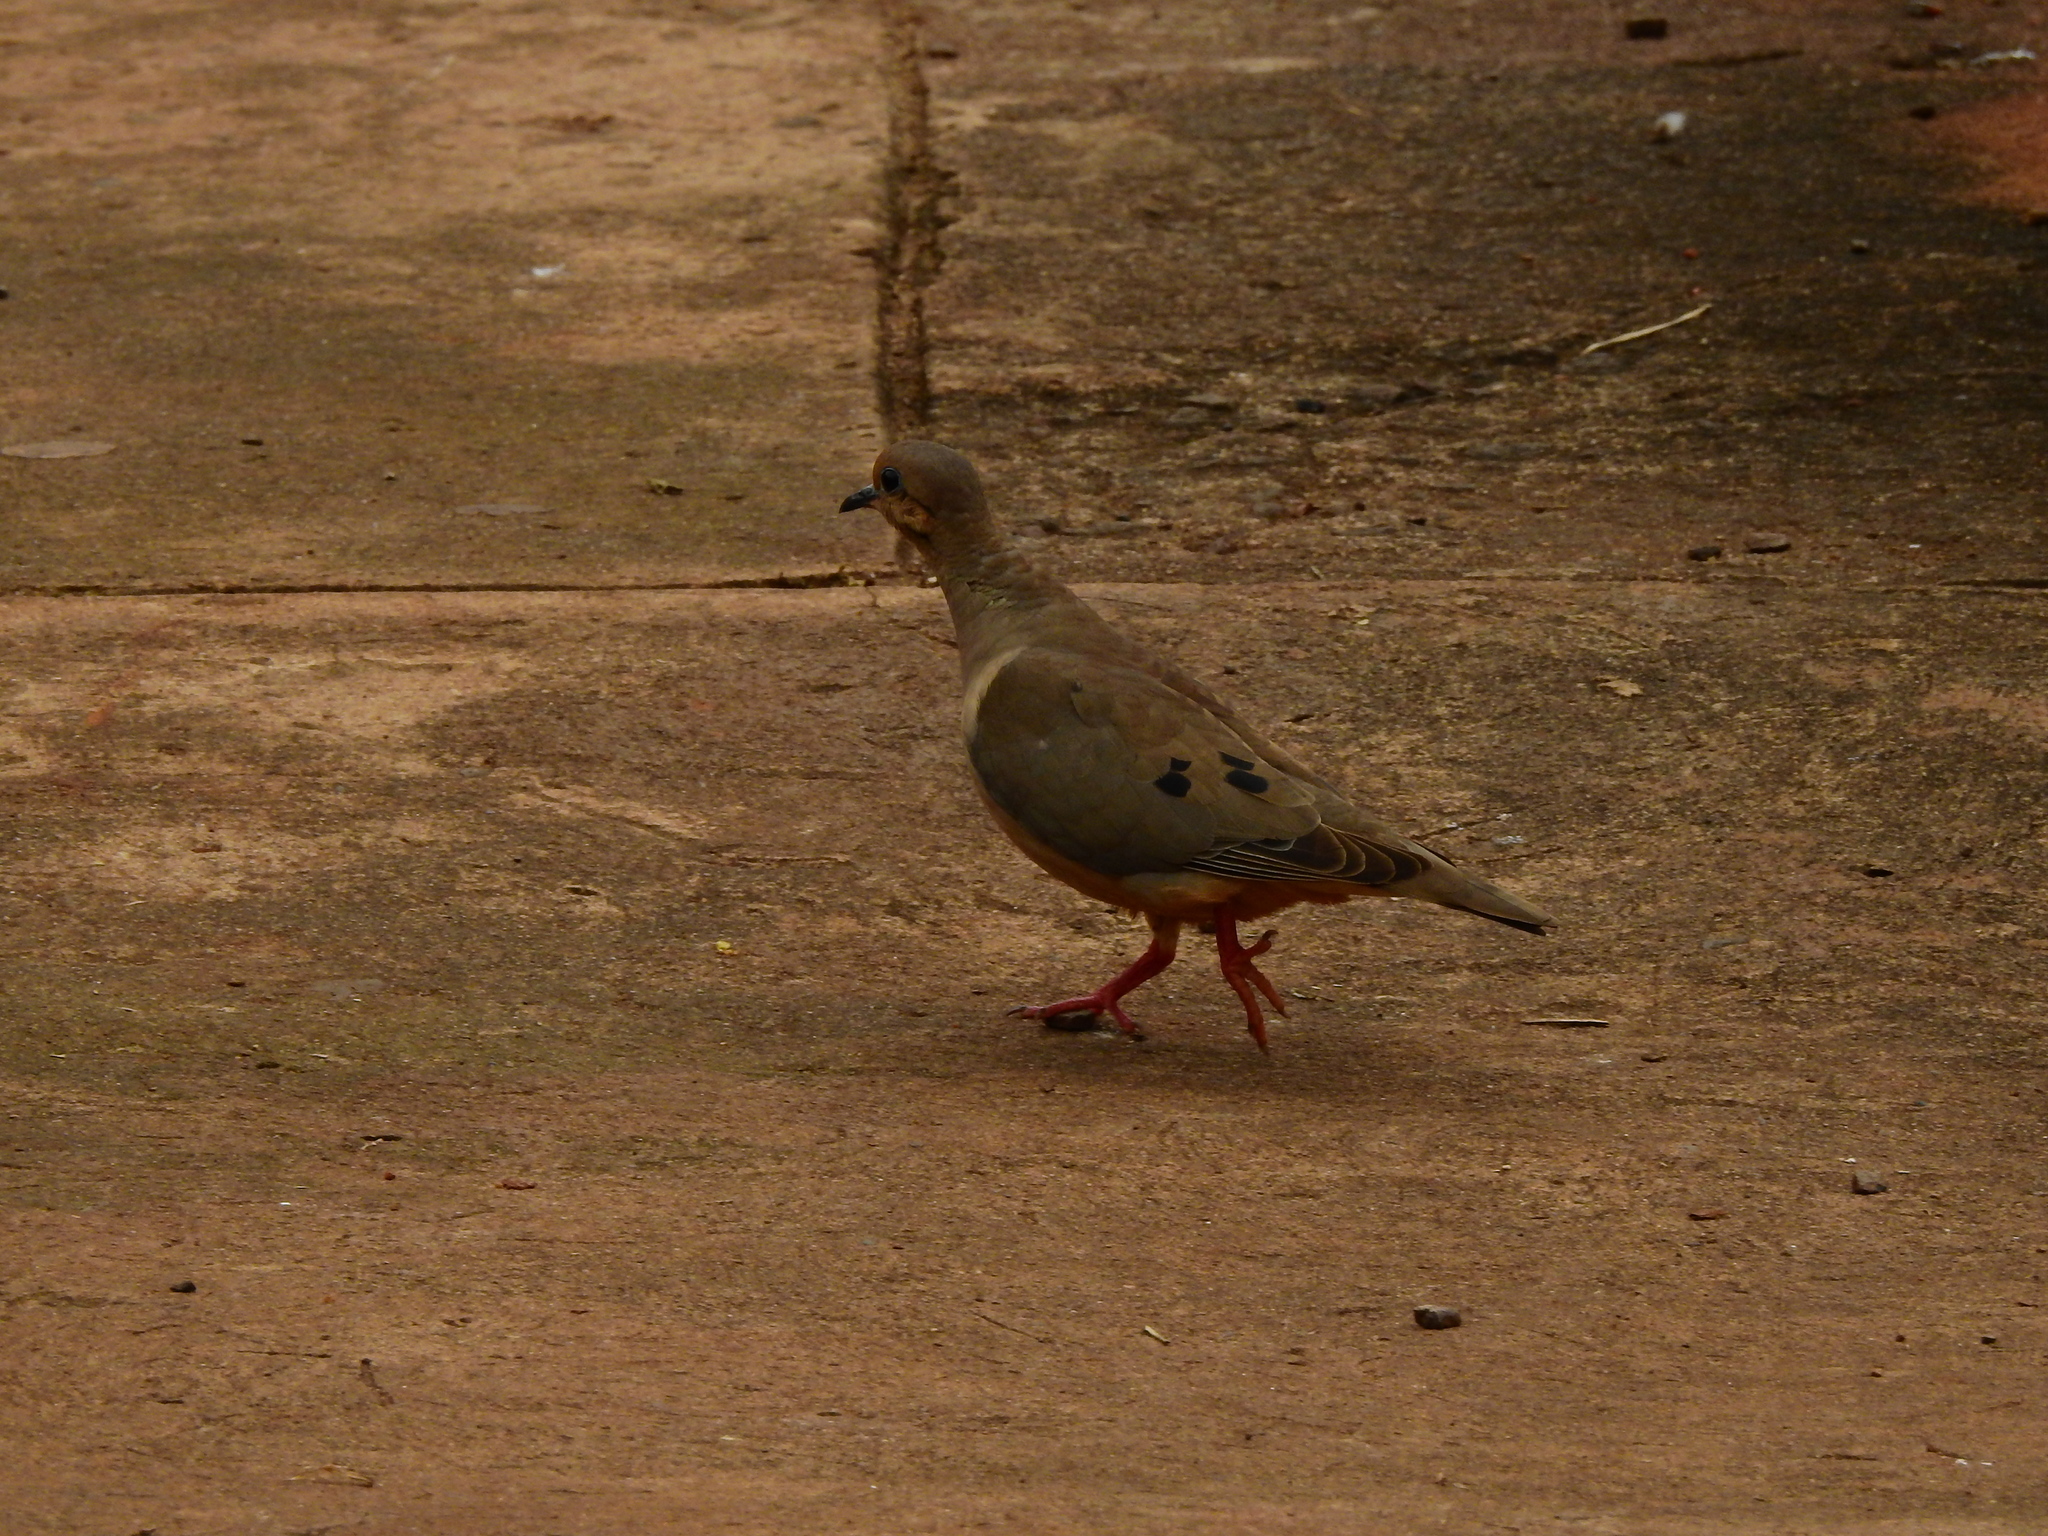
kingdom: Animalia
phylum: Chordata
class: Aves
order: Columbiformes
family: Columbidae
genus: Zenaida
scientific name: Zenaida auriculata
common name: Eared dove
